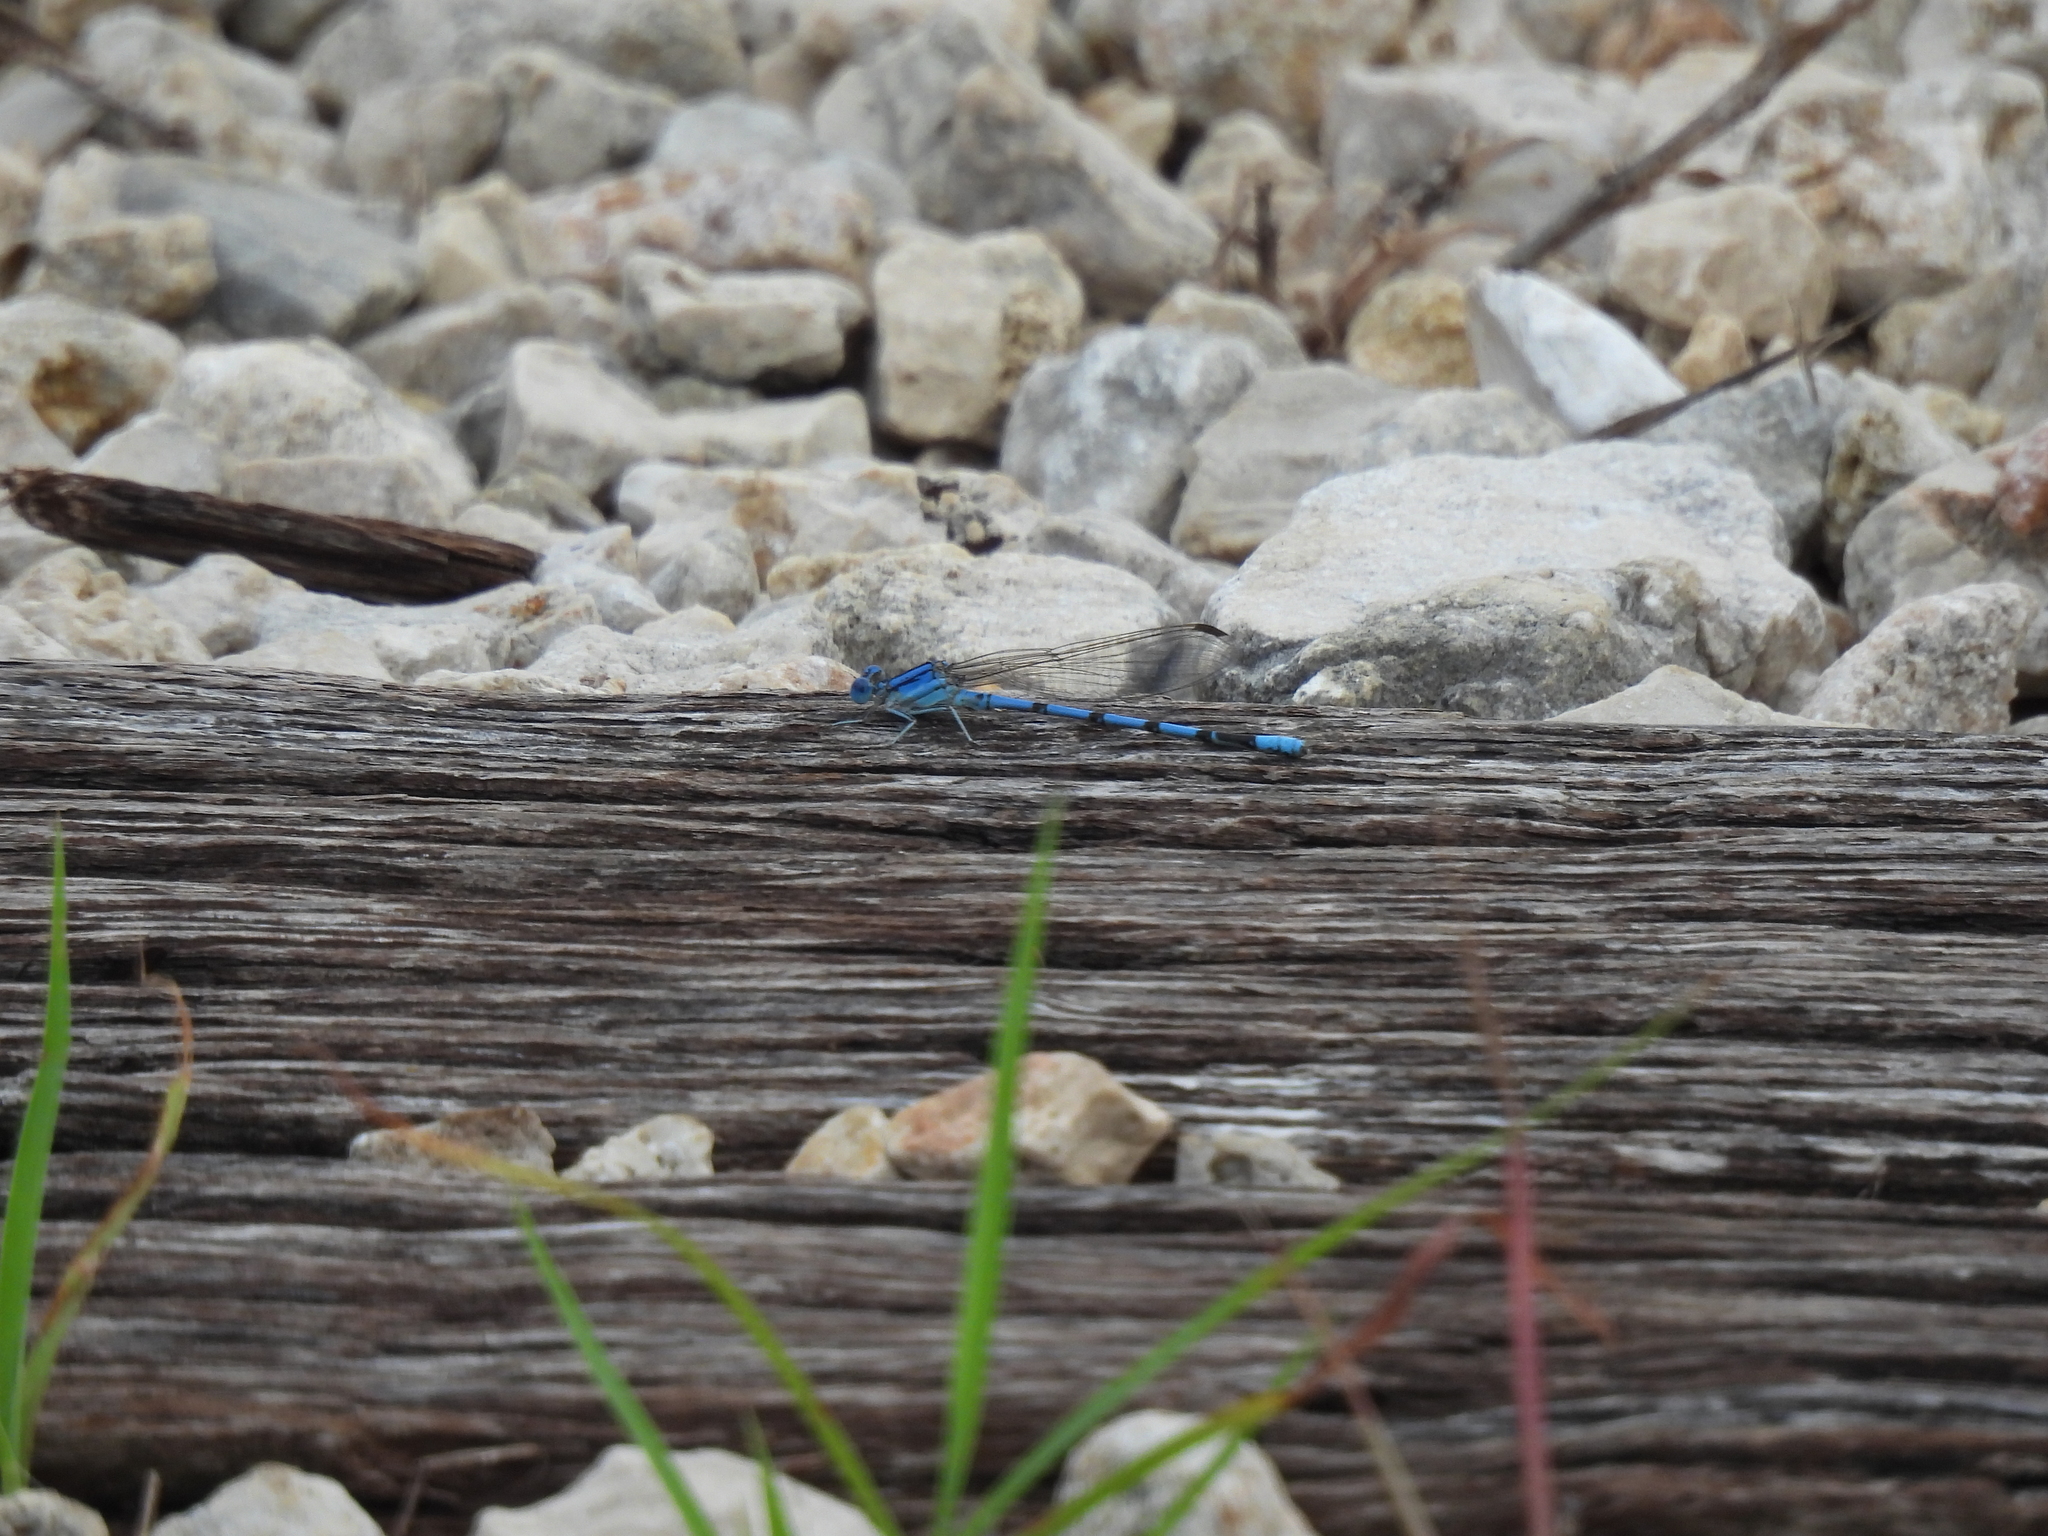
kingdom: Animalia
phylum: Arthropoda
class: Insecta
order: Odonata
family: Coenagrionidae
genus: Argia
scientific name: Argia nahuana
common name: Aztec dancer
